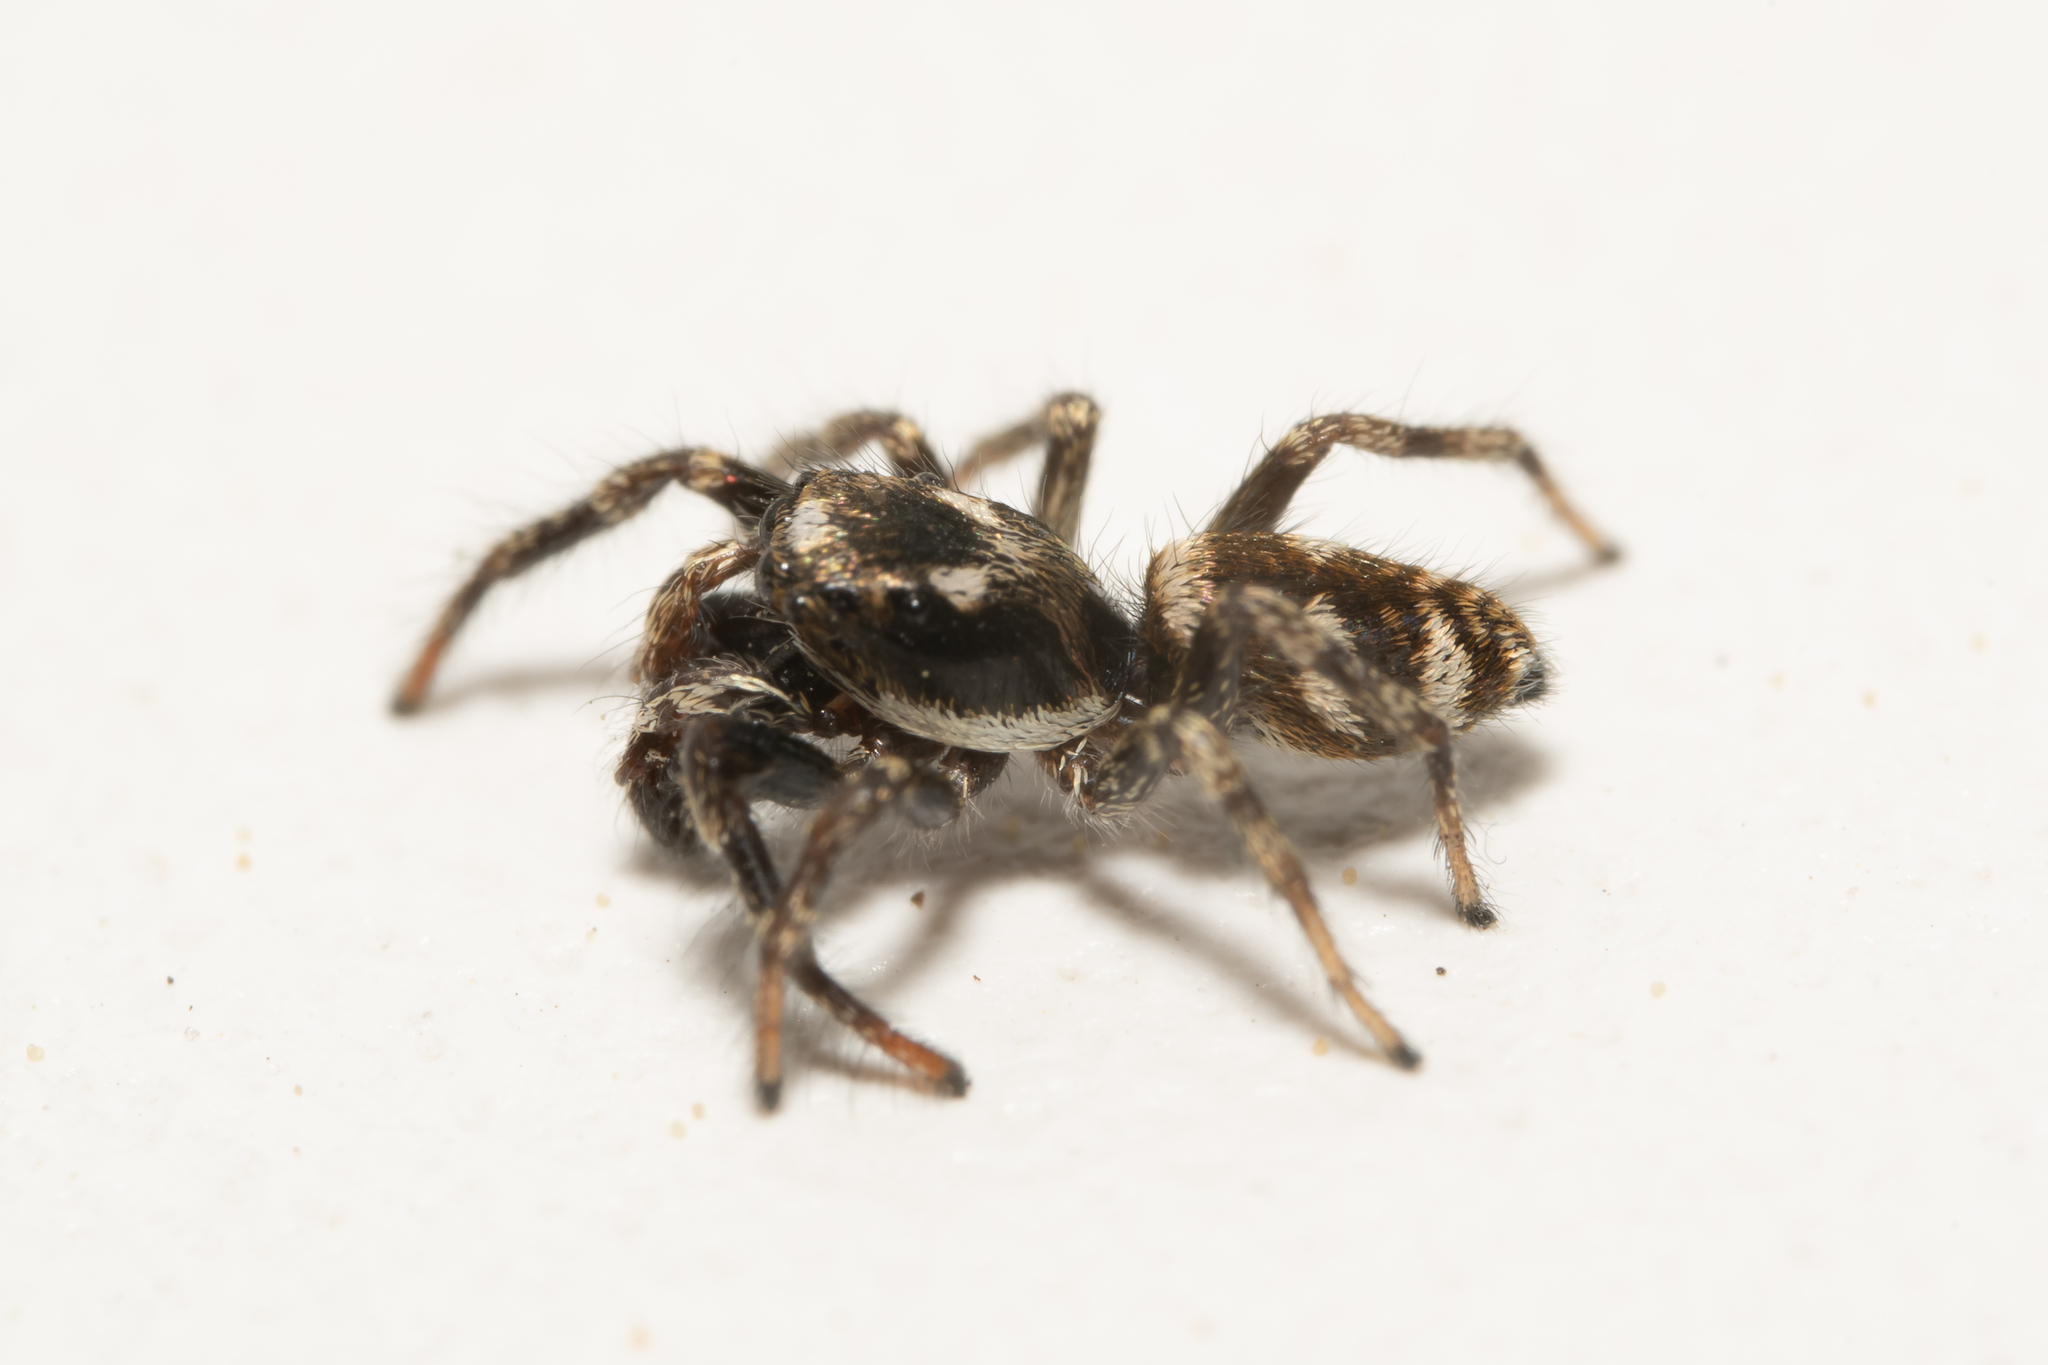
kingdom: Animalia
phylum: Arthropoda
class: Arachnida
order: Araneae
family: Salticidae
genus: Salticus
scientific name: Salticus scenicus
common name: Zebra jumper
